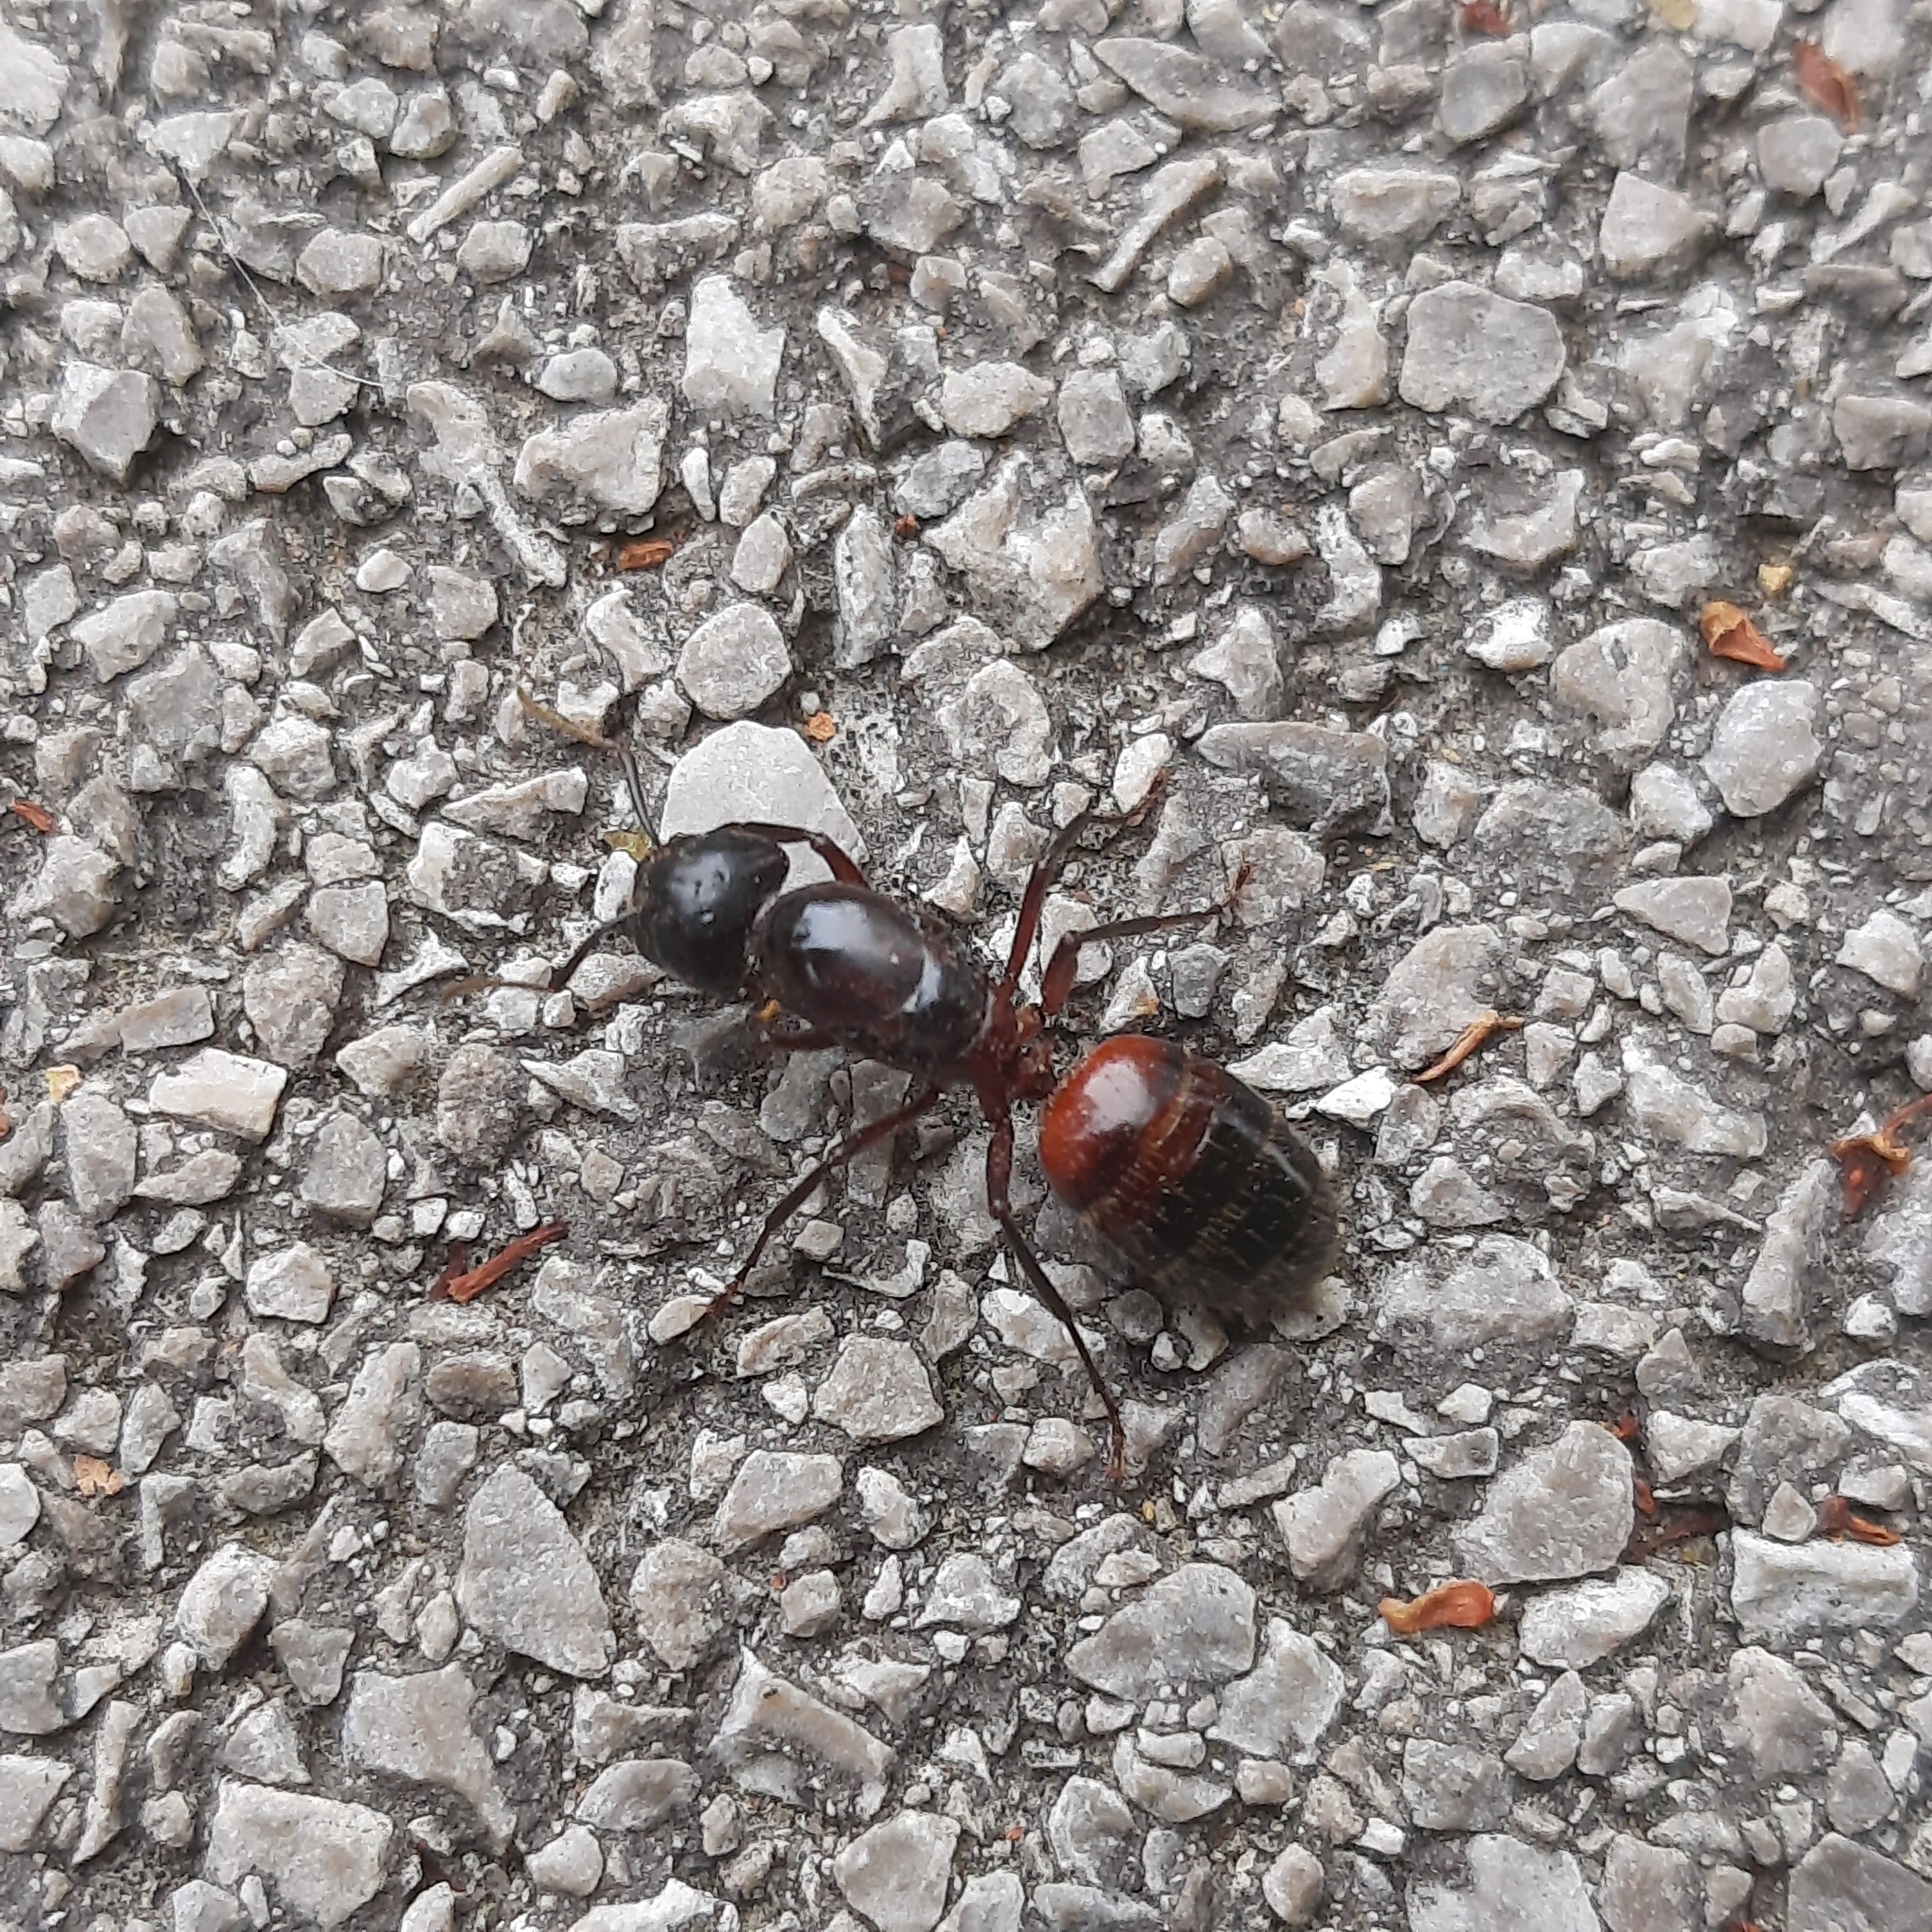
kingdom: Animalia
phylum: Arthropoda
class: Insecta
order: Hymenoptera
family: Formicidae
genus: Camponotus
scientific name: Camponotus ligniperdus
